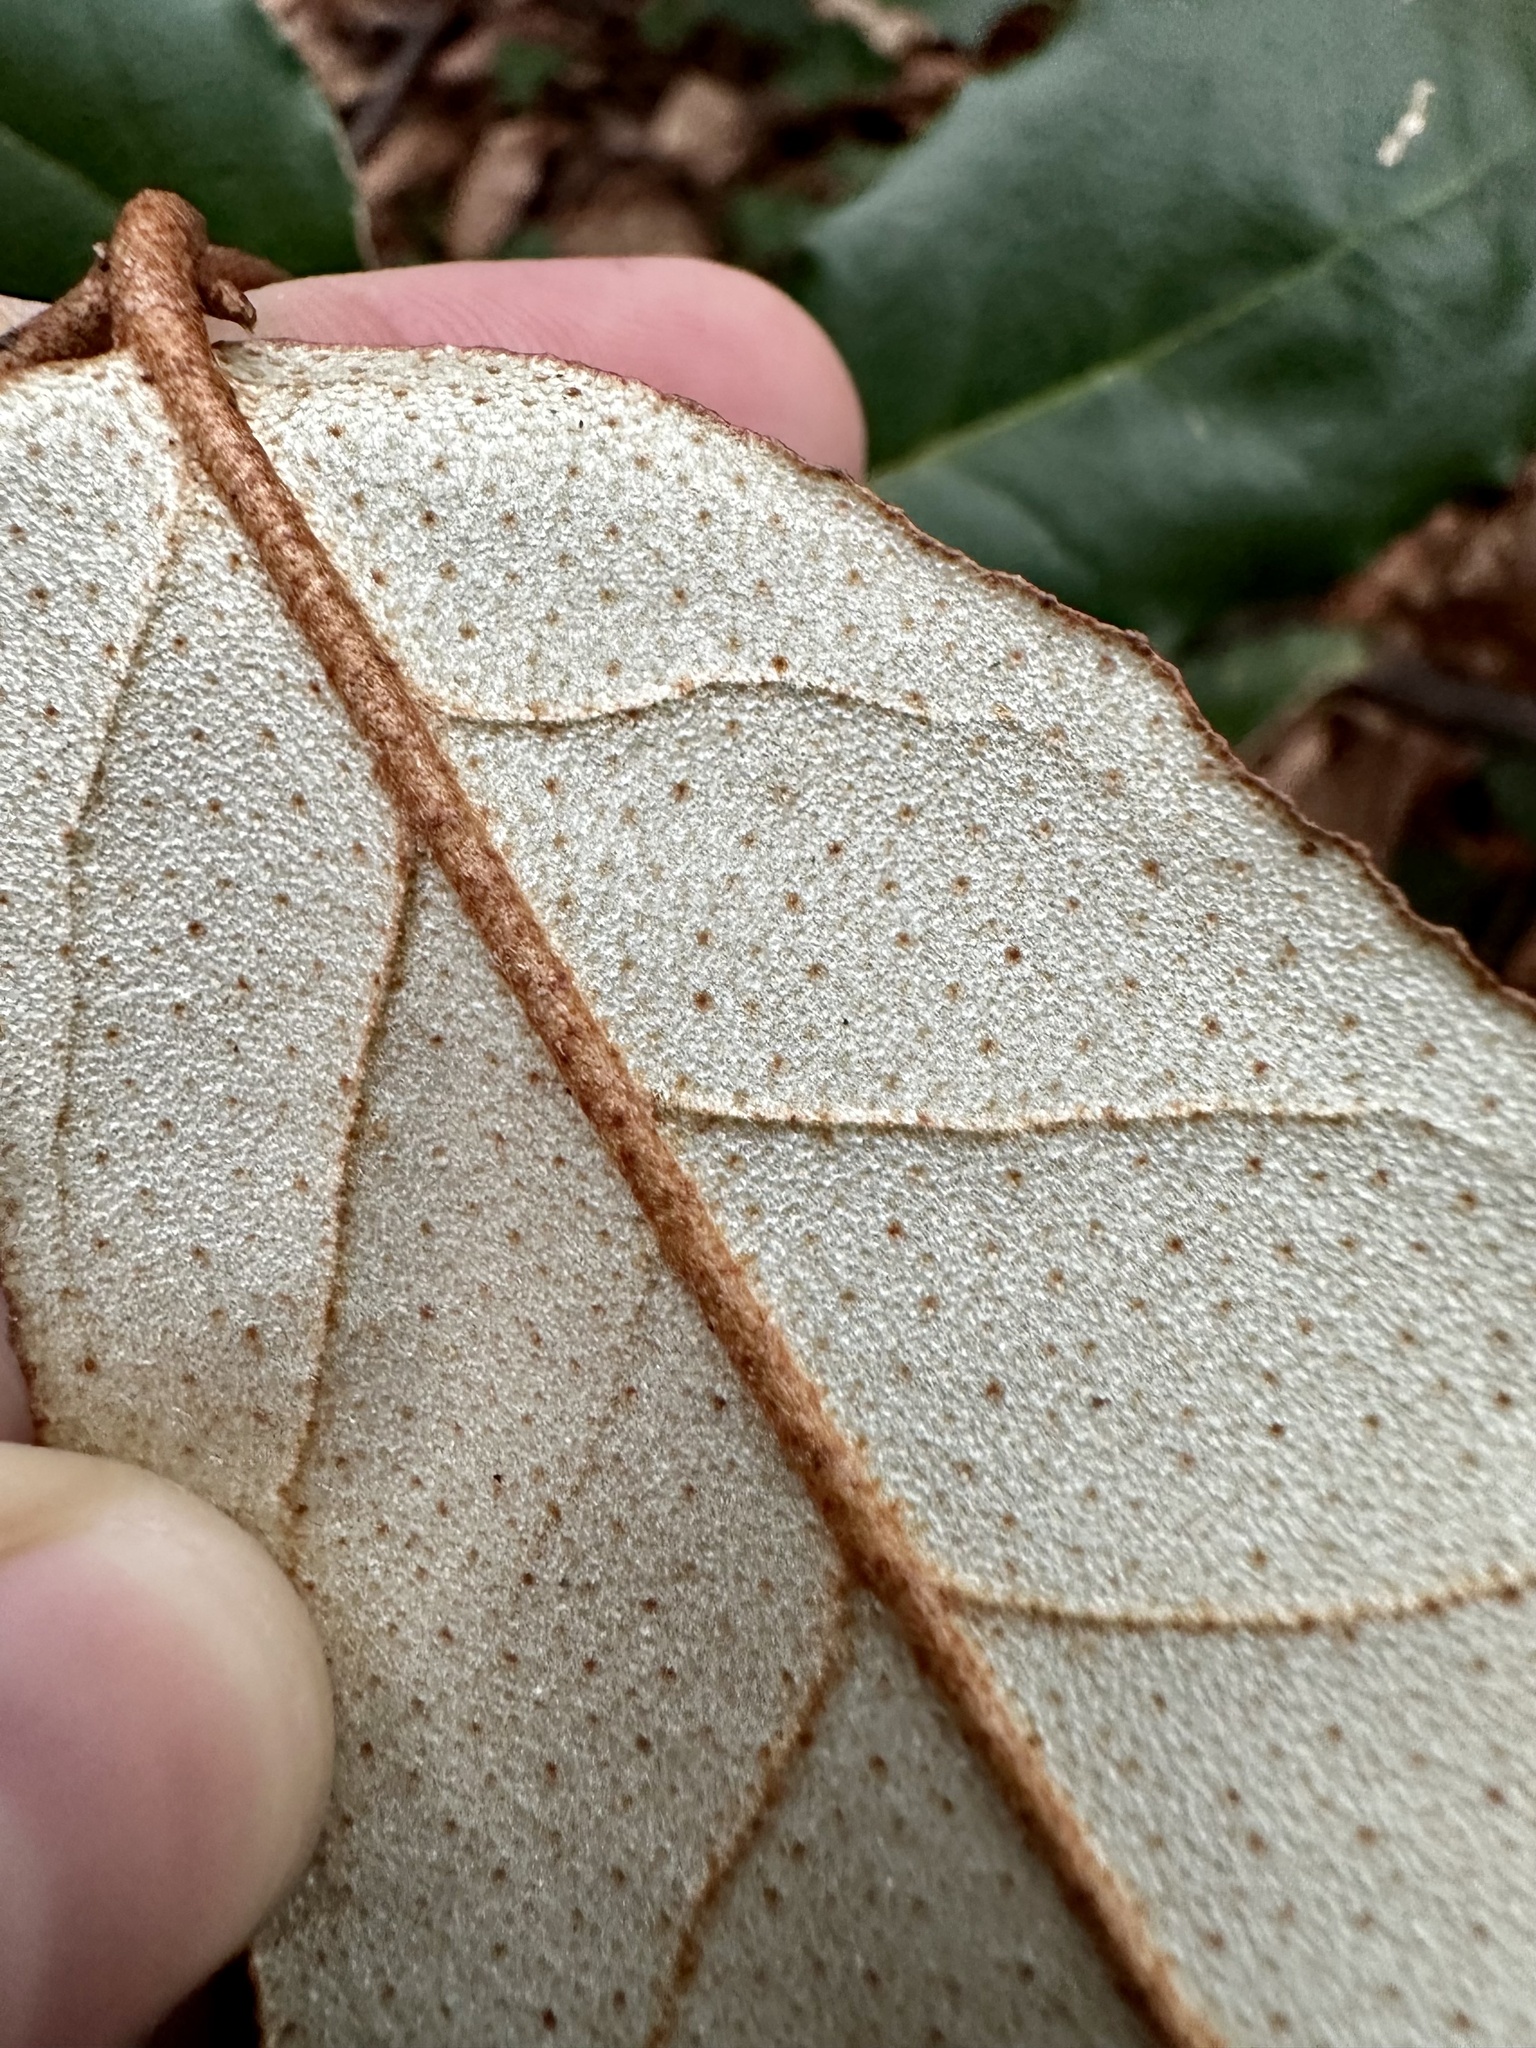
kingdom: Plantae
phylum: Tracheophyta
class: Magnoliopsida
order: Rosales
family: Elaeagnaceae
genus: Elaeagnus
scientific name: Elaeagnus pungens
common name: Spiny oleaster
